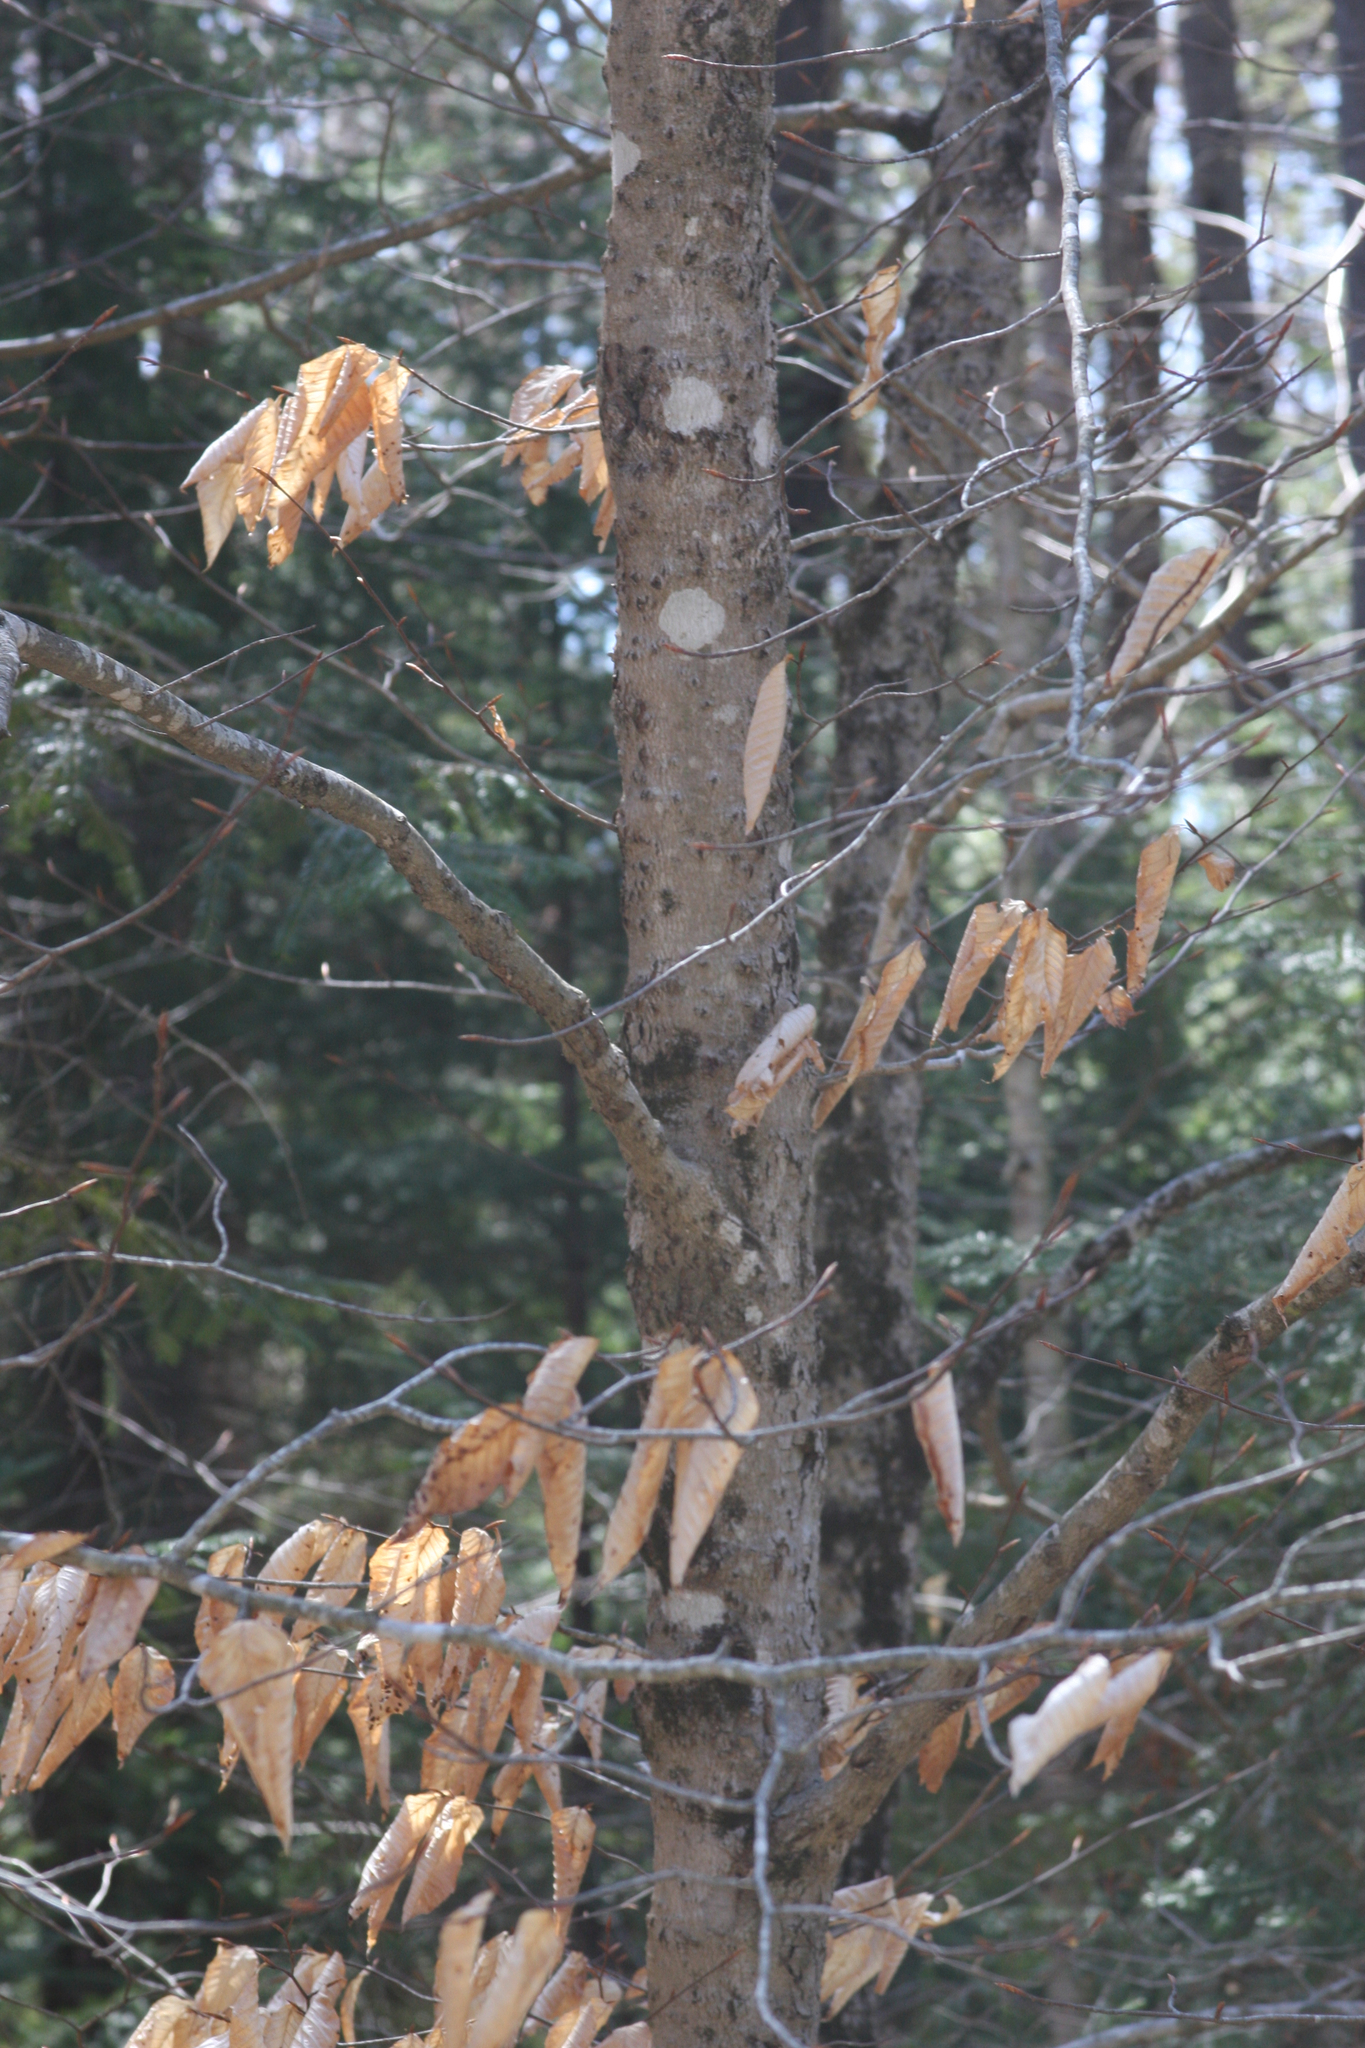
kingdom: Plantae
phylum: Tracheophyta
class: Magnoliopsida
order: Fagales
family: Fagaceae
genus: Fagus
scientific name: Fagus grandifolia
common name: American beech
